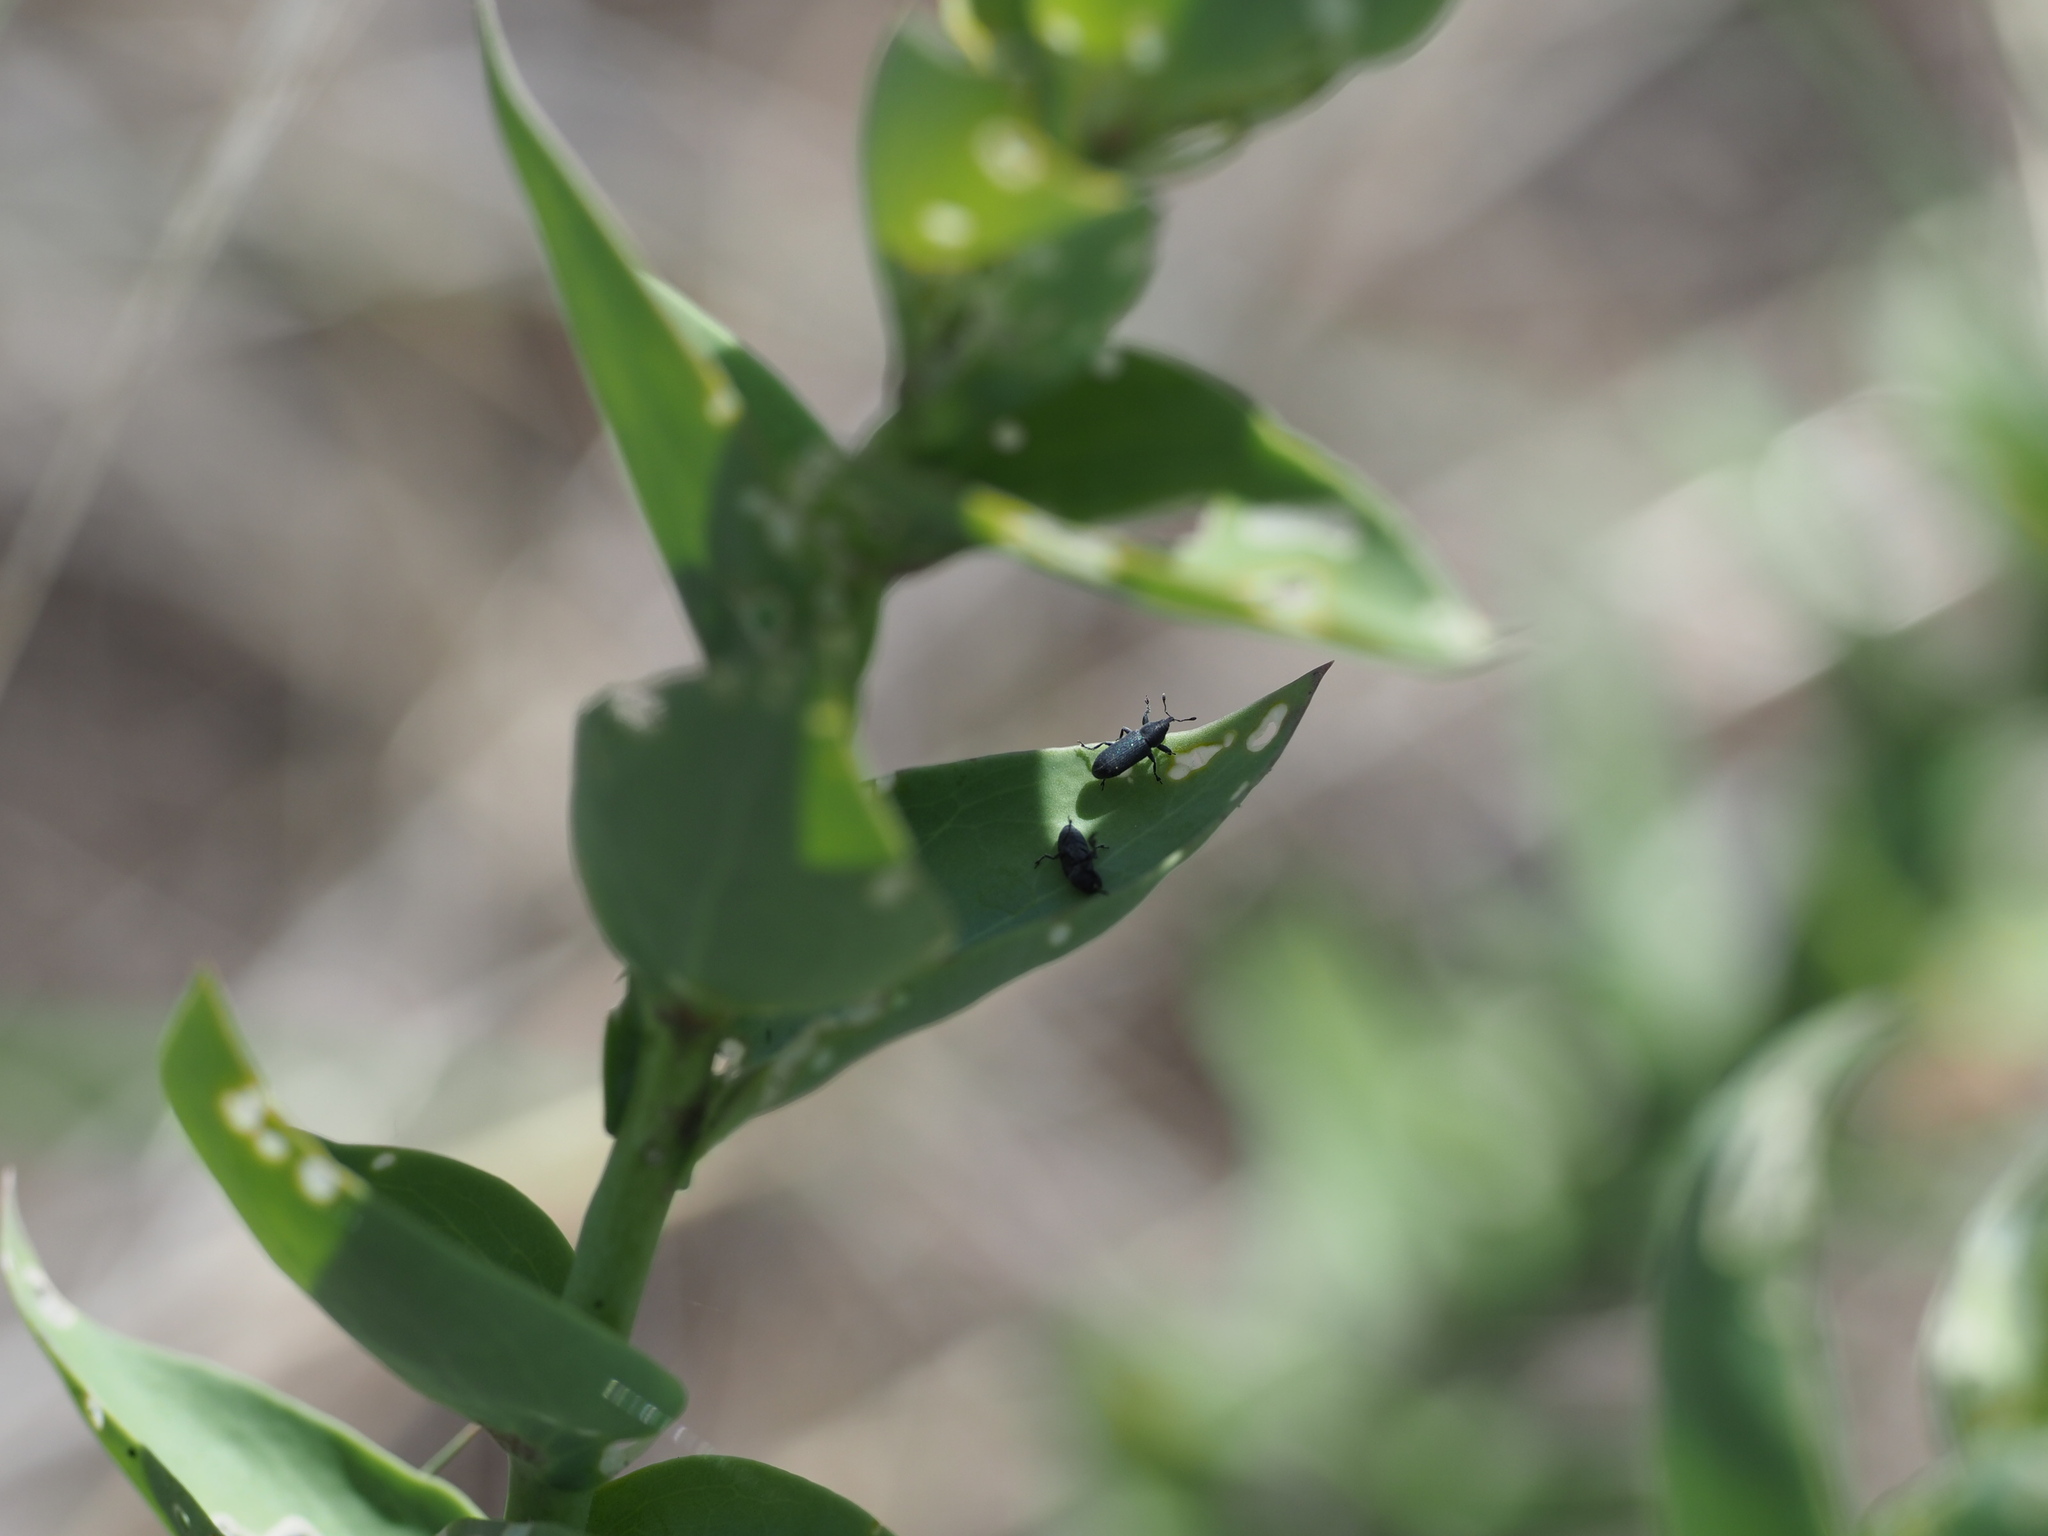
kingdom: Animalia
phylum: Arthropoda
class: Insecta
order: Coleoptera
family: Curculionidae
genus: Mecinus
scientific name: Mecinus janthiniformis
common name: Dalmatian toadflax stem weevil
